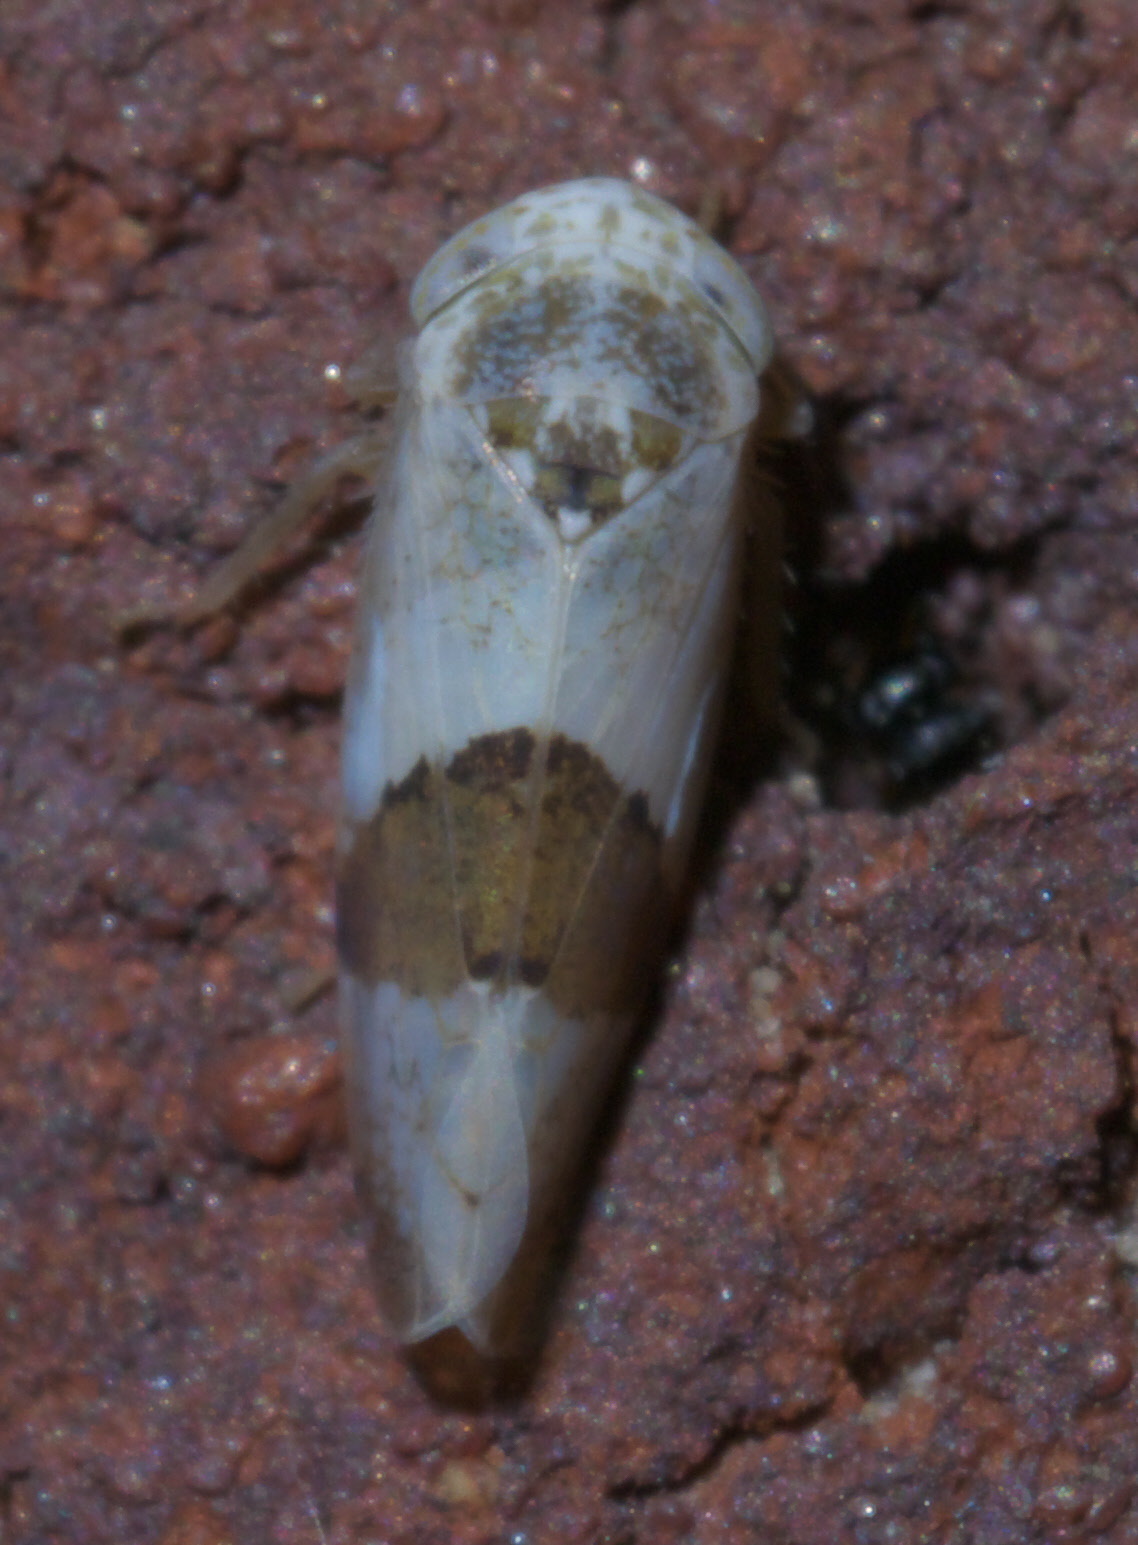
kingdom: Animalia
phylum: Arthropoda
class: Insecta
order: Hemiptera
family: Cicadellidae
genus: Norvellina
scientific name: Norvellina seminuda
